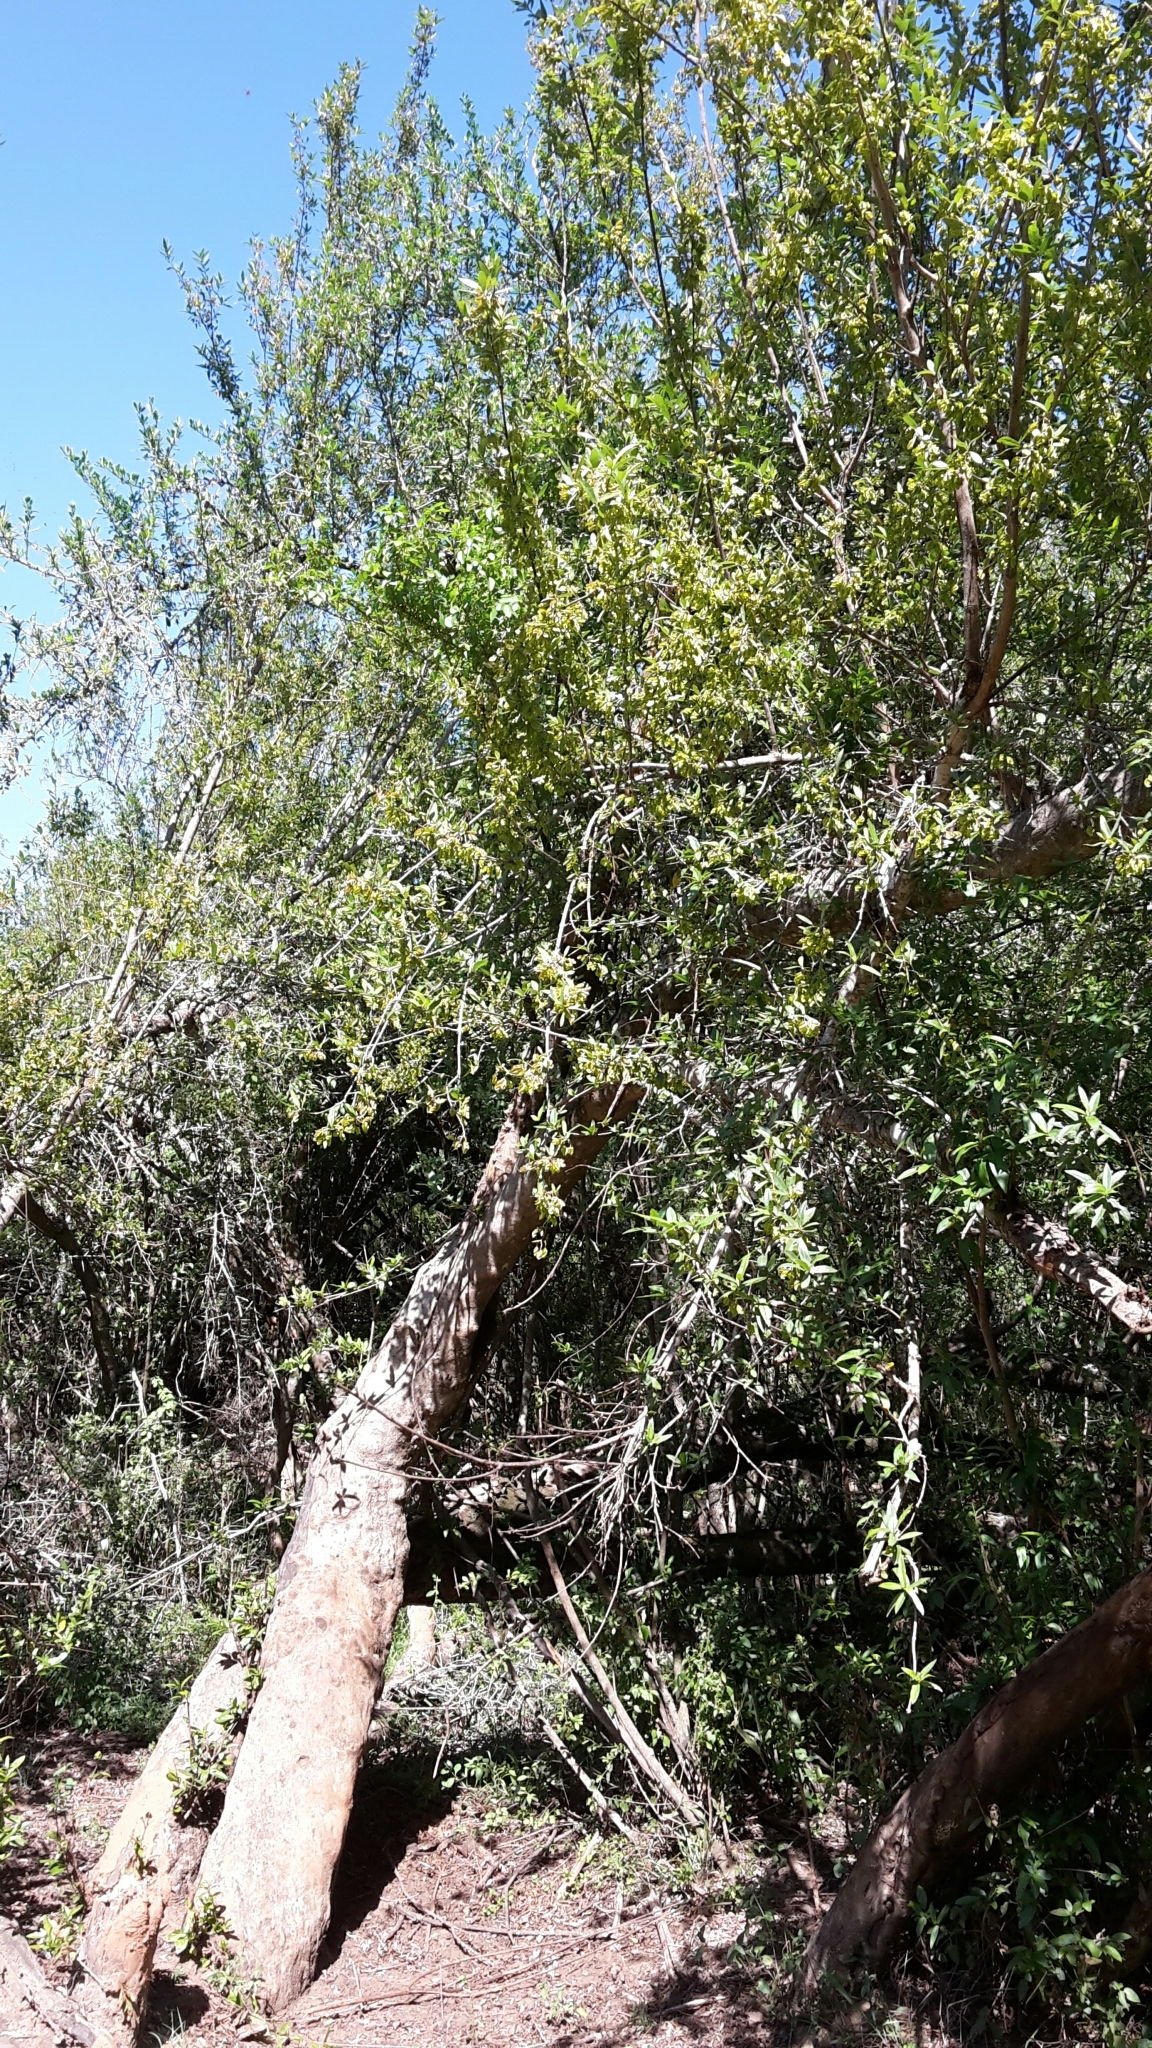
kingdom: Plantae
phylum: Tracheophyta
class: Magnoliopsida
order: Myrtales
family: Combretaceae
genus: Combretum
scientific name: Combretum caffrum
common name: Cape bushwillow
